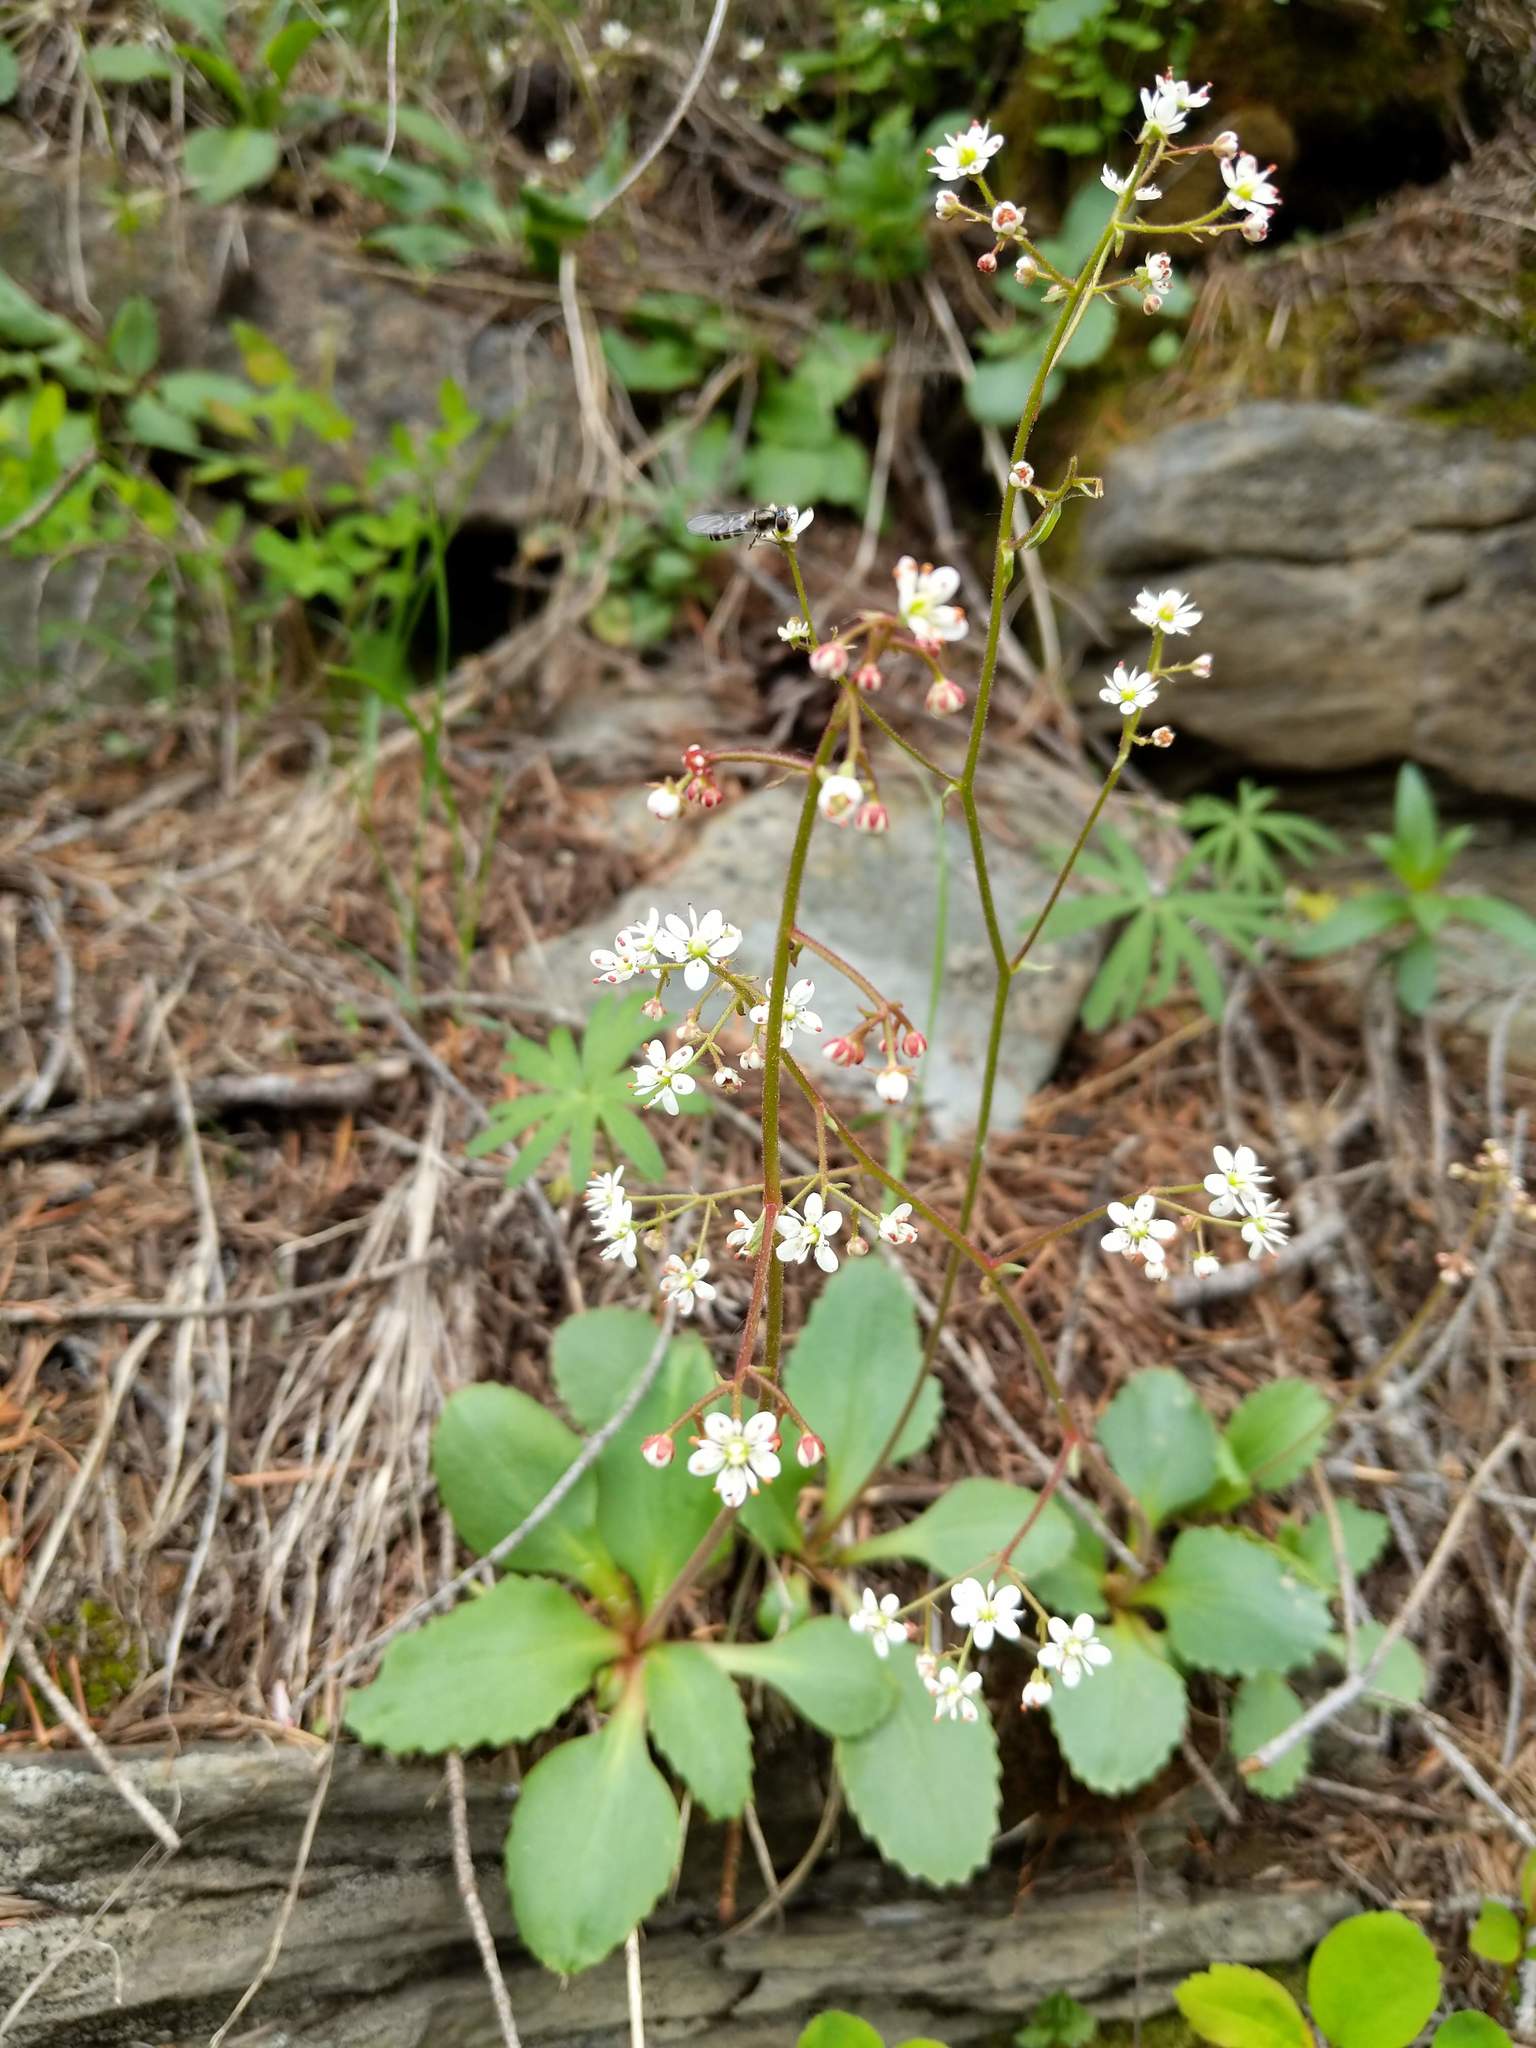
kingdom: Plantae
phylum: Tracheophyta
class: Magnoliopsida
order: Saxifragales
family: Saxifragaceae
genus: Micranthes
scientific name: Micranthes idahoensis
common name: Idaho saxifrage
